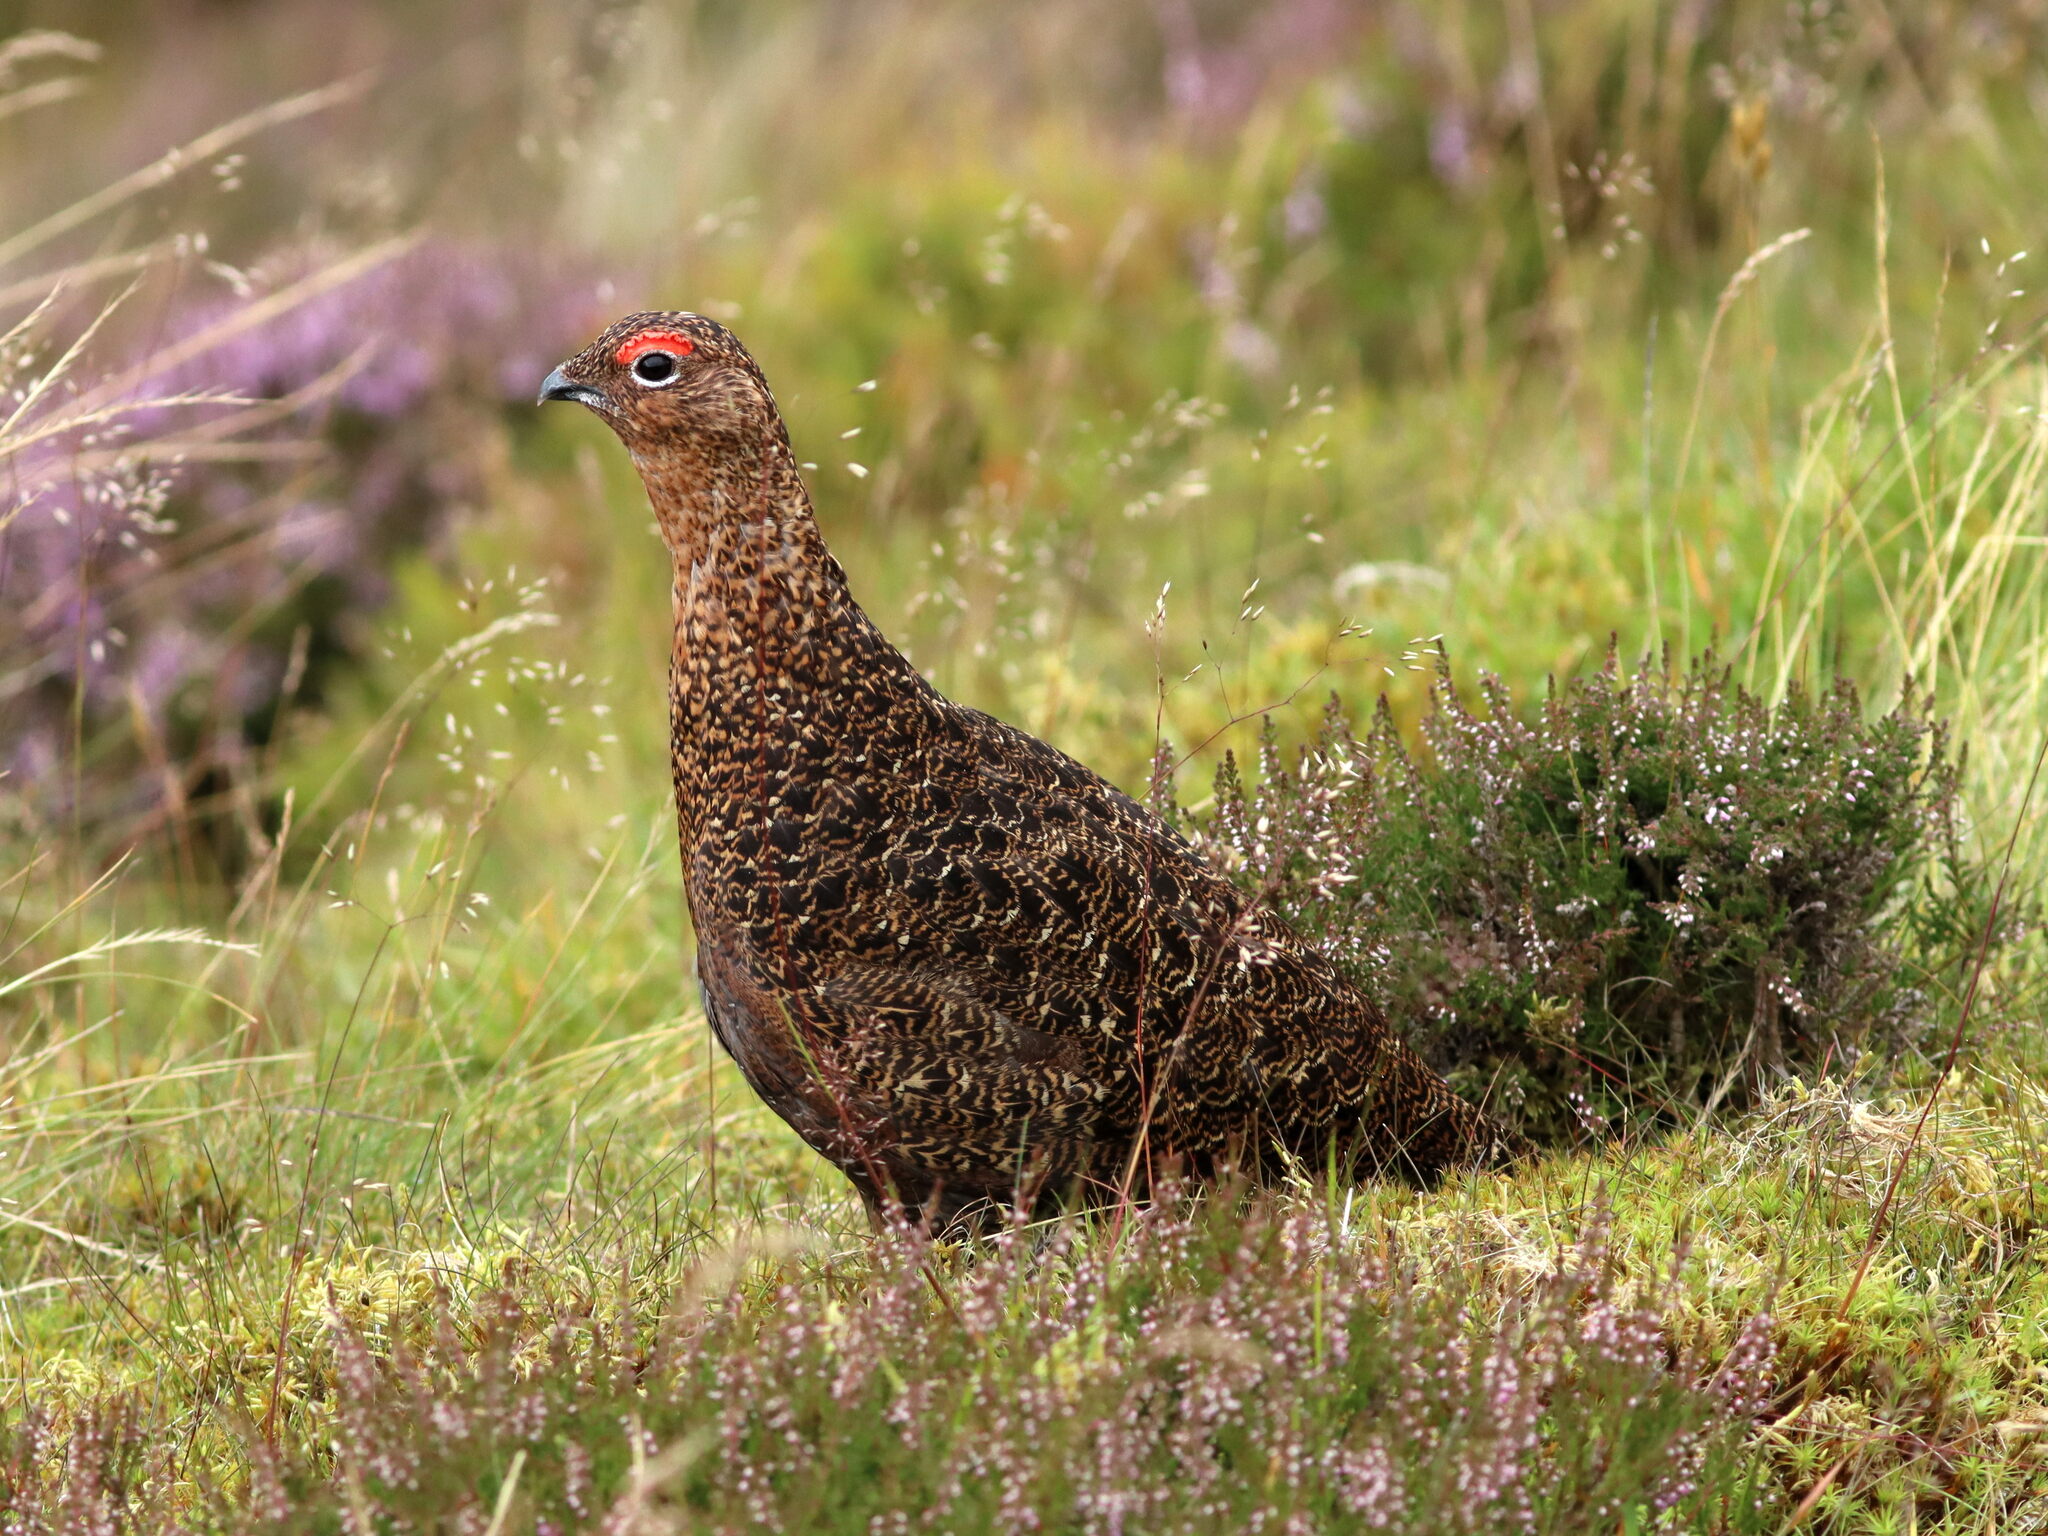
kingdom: Animalia
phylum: Chordata
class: Aves
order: Galliformes
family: Phasianidae
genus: Lagopus
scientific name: Lagopus lagopus
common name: Willow ptarmigan
